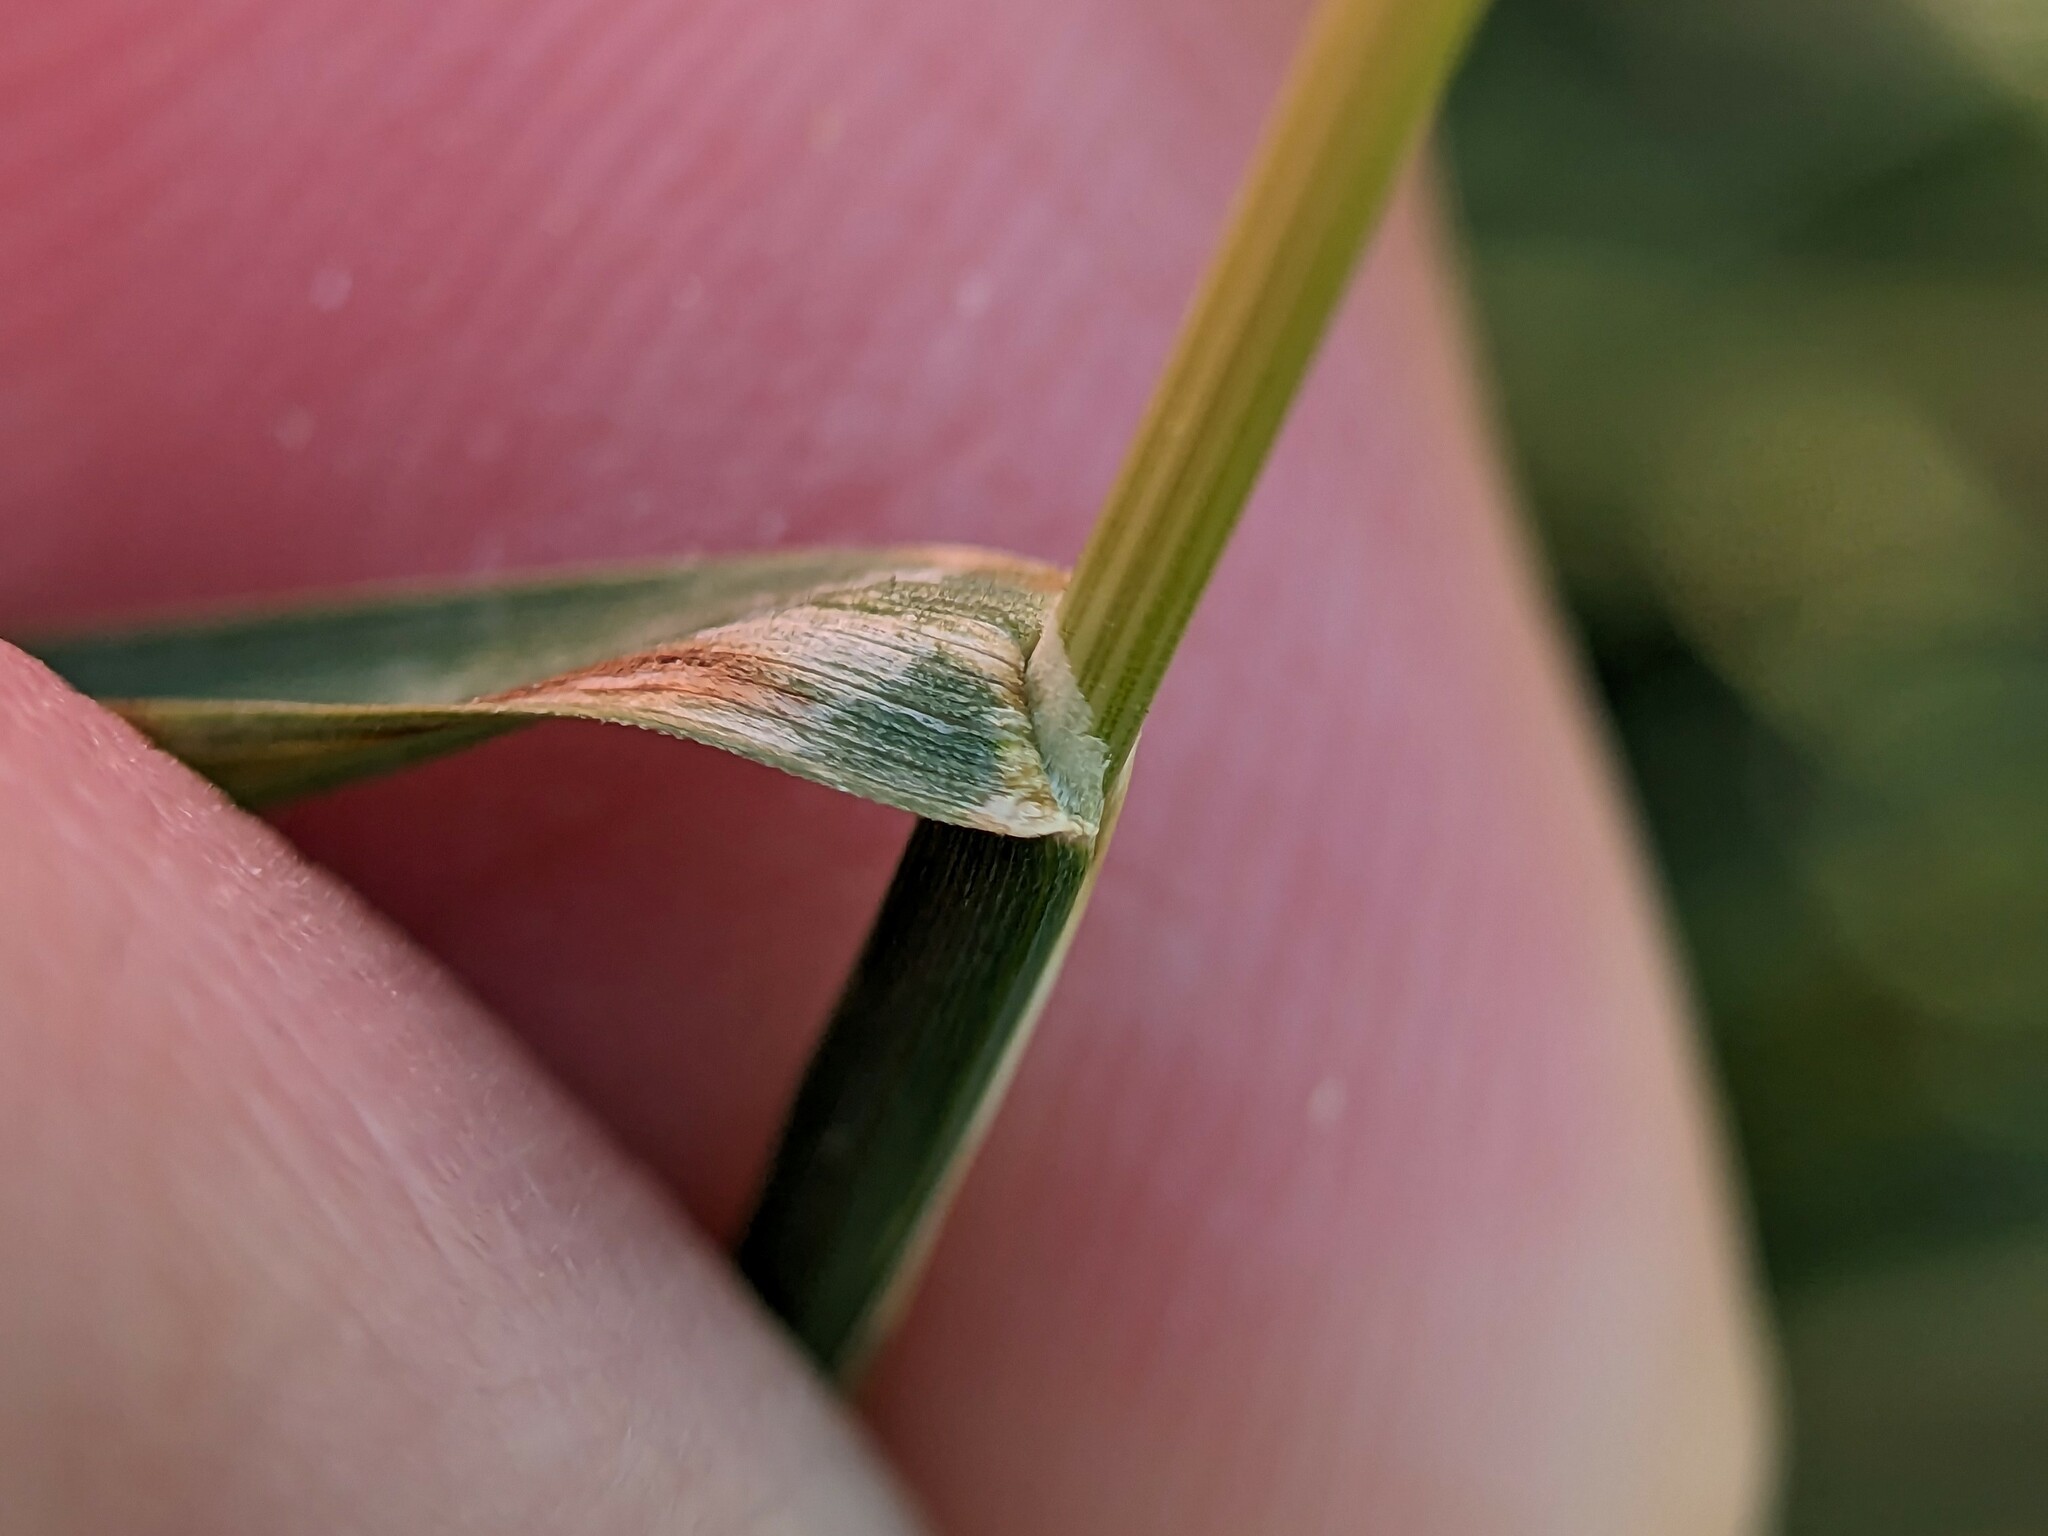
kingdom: Plantae
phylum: Tracheophyta
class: Liliopsida
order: Poales
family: Poaceae
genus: Poa
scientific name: Poa pratensis
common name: Kentucky bluegrass
